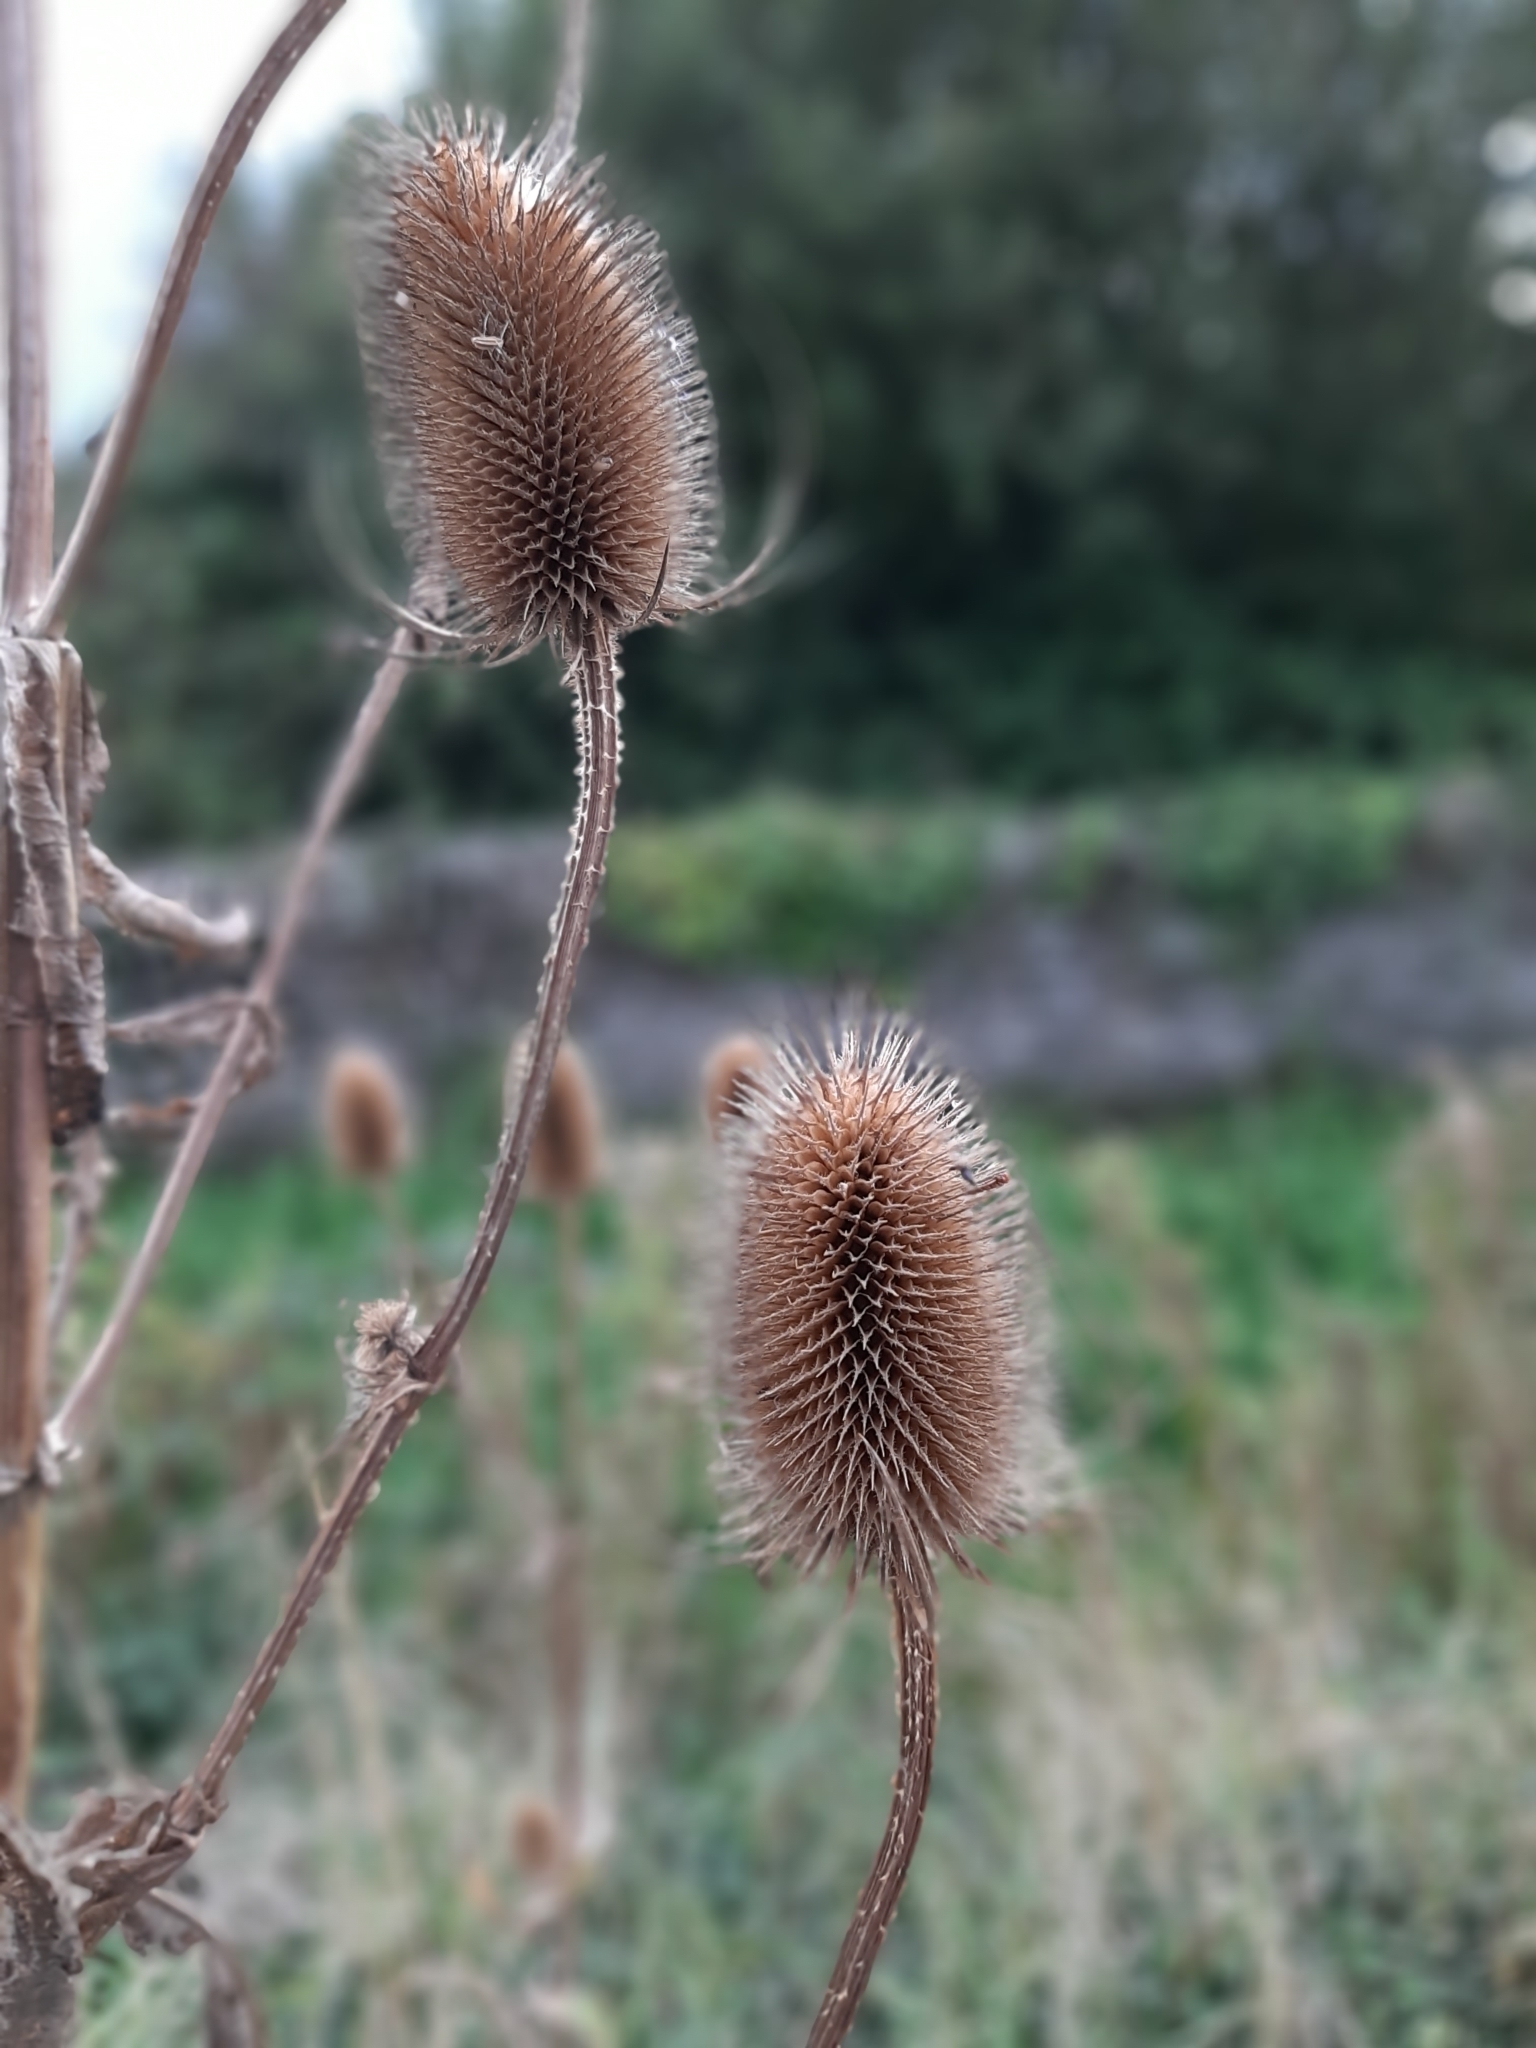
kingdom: Plantae
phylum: Tracheophyta
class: Magnoliopsida
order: Dipsacales
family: Caprifoliaceae
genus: Dipsacus
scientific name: Dipsacus fullonum
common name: Teasel
